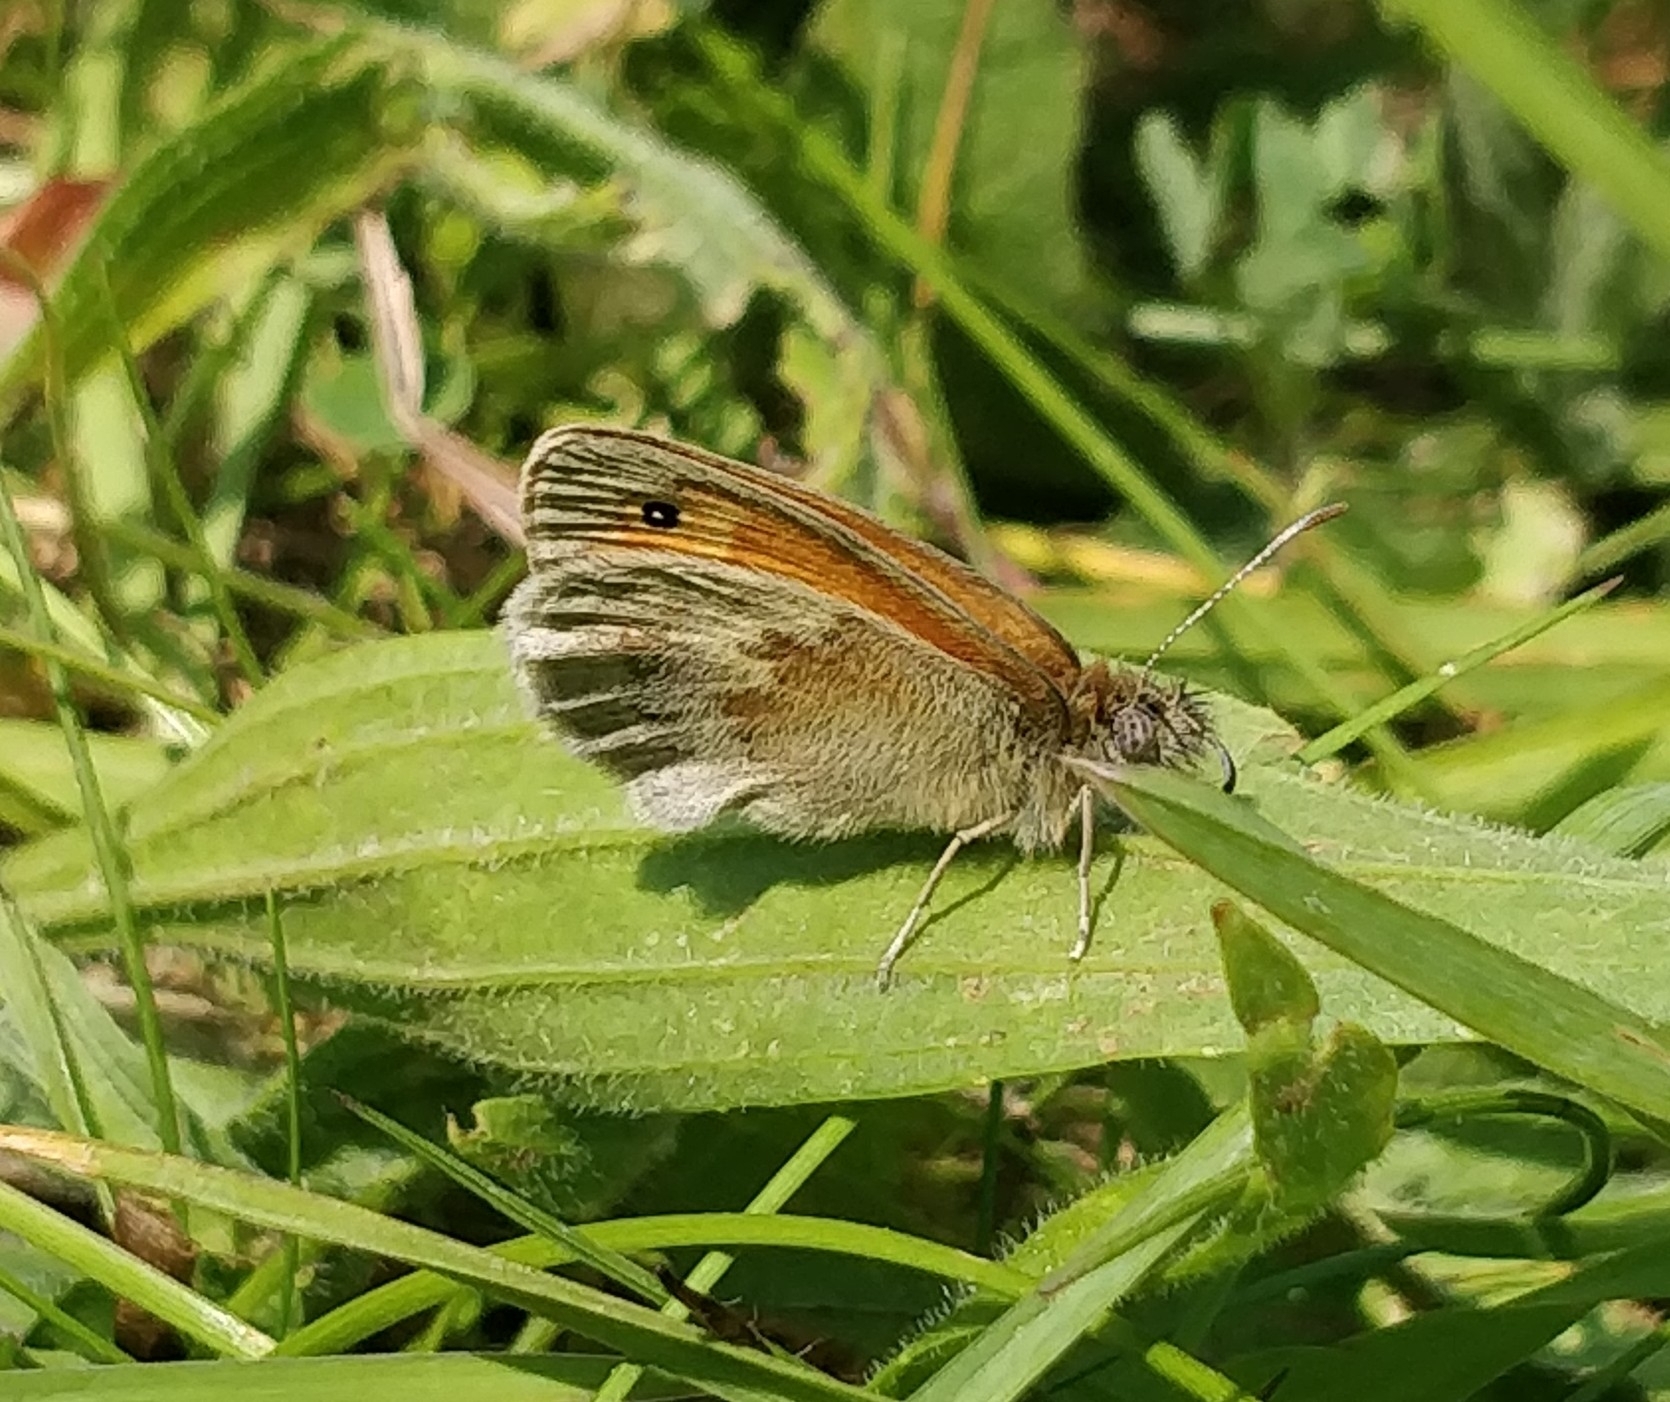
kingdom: Animalia
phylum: Arthropoda
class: Insecta
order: Lepidoptera
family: Nymphalidae
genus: Coenonympha
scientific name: Coenonympha pamphilus
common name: Small heath
